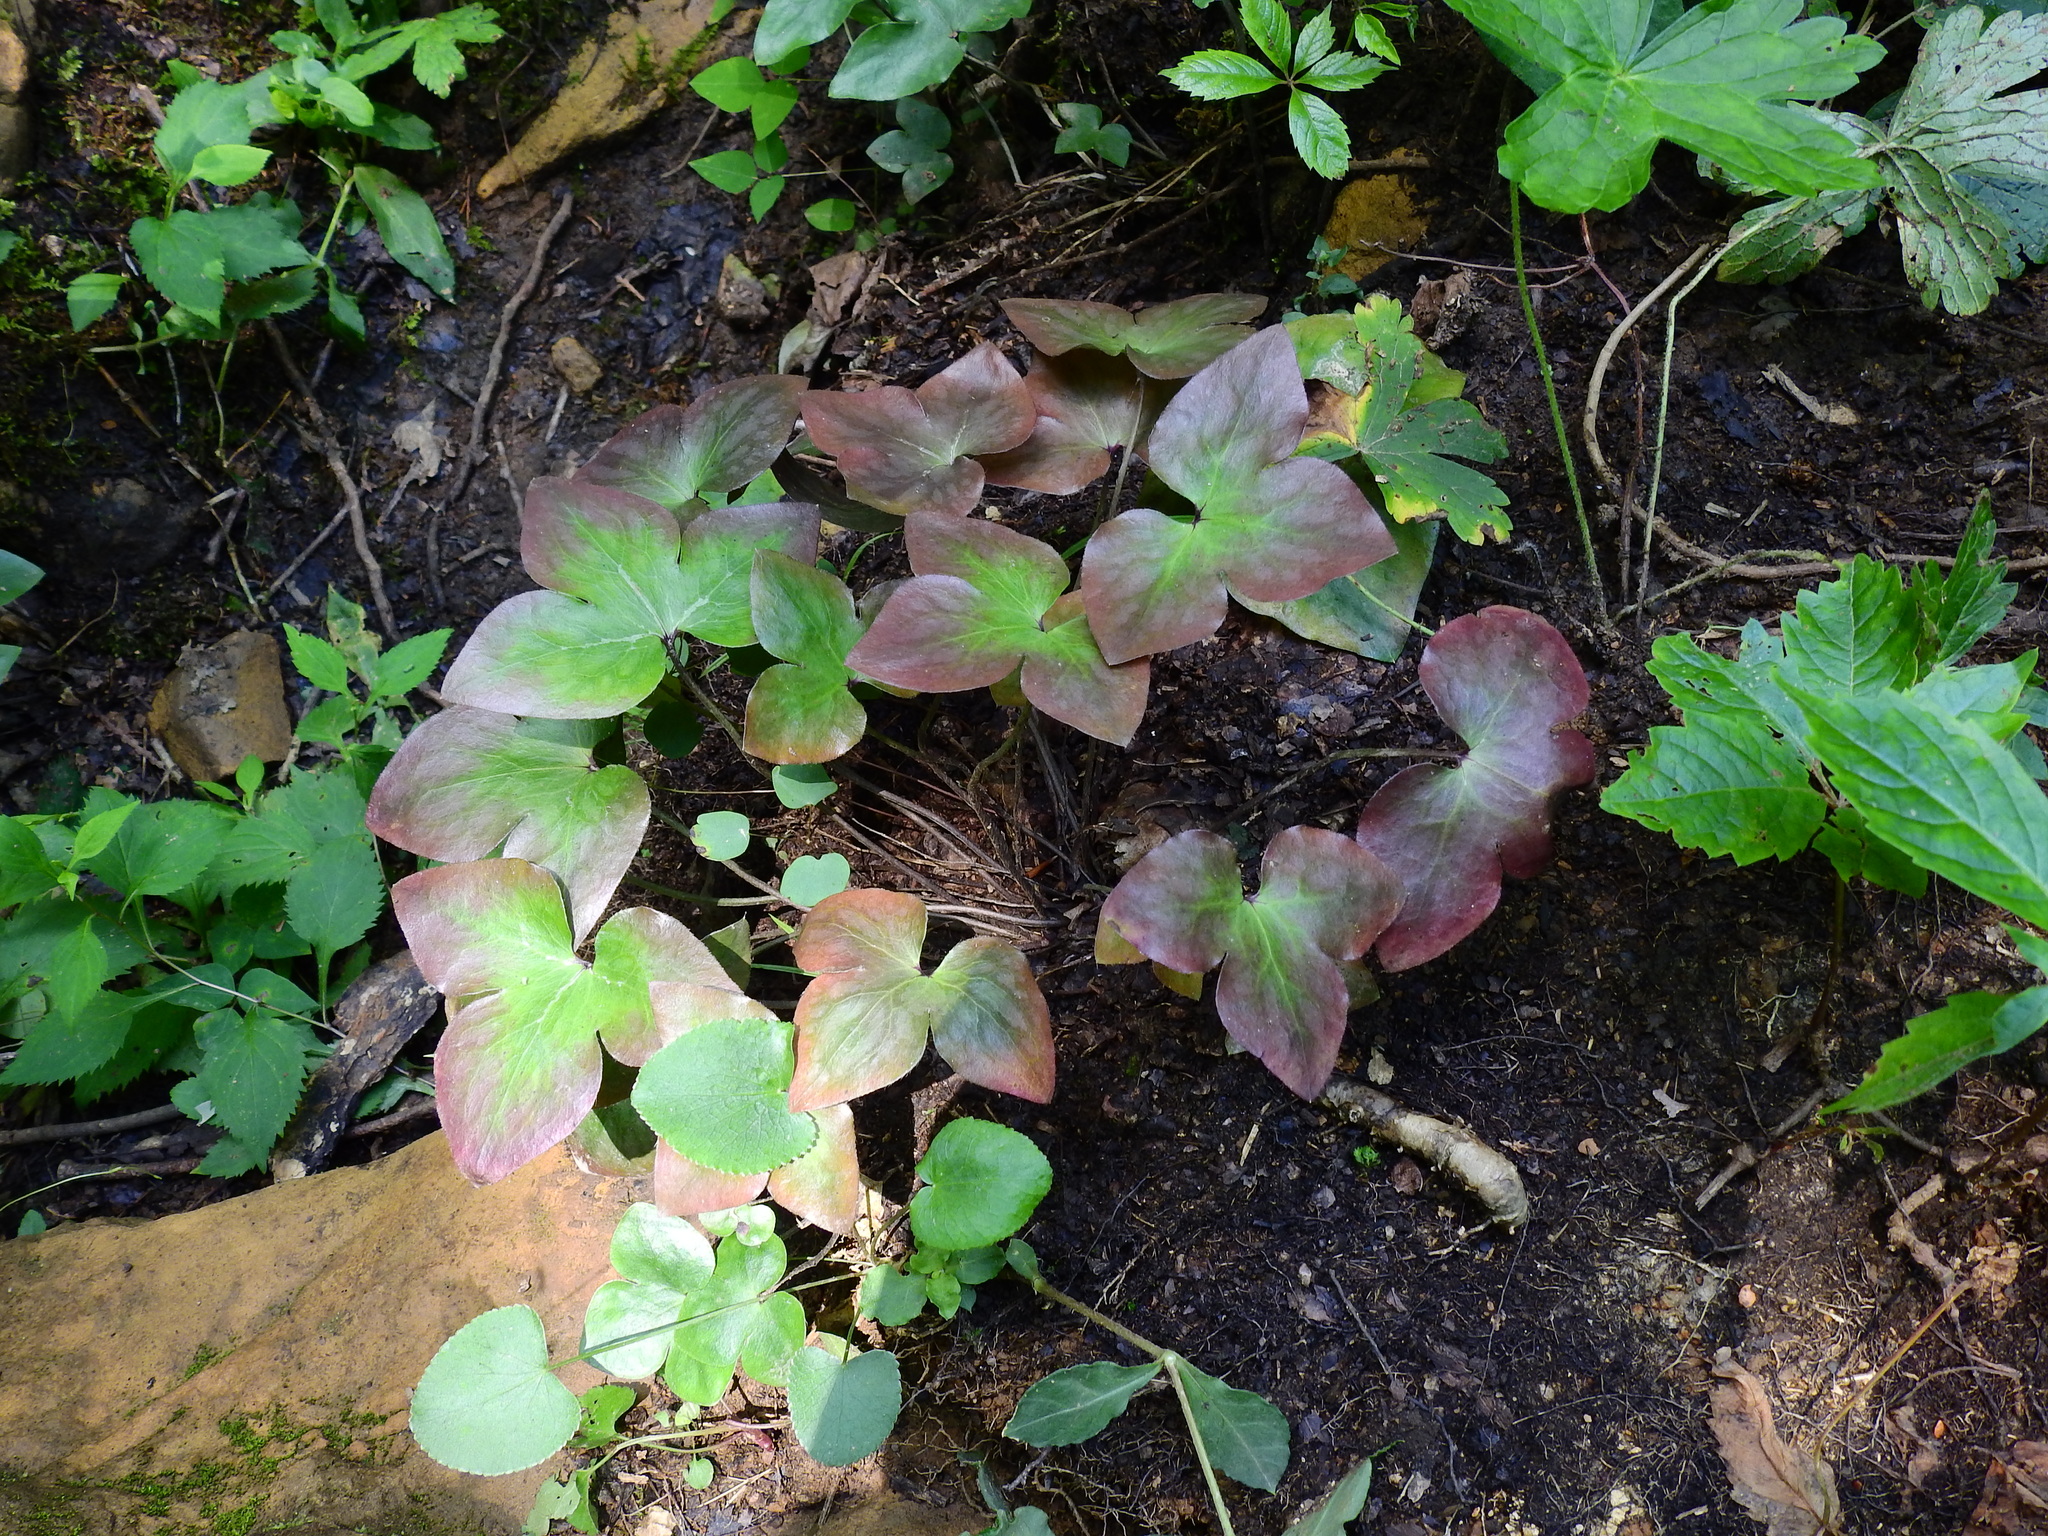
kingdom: Plantae
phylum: Tracheophyta
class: Magnoliopsida
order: Ranunculales
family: Ranunculaceae
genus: Hepatica
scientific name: Hepatica acutiloba
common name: Sharp-lobed hepatica
